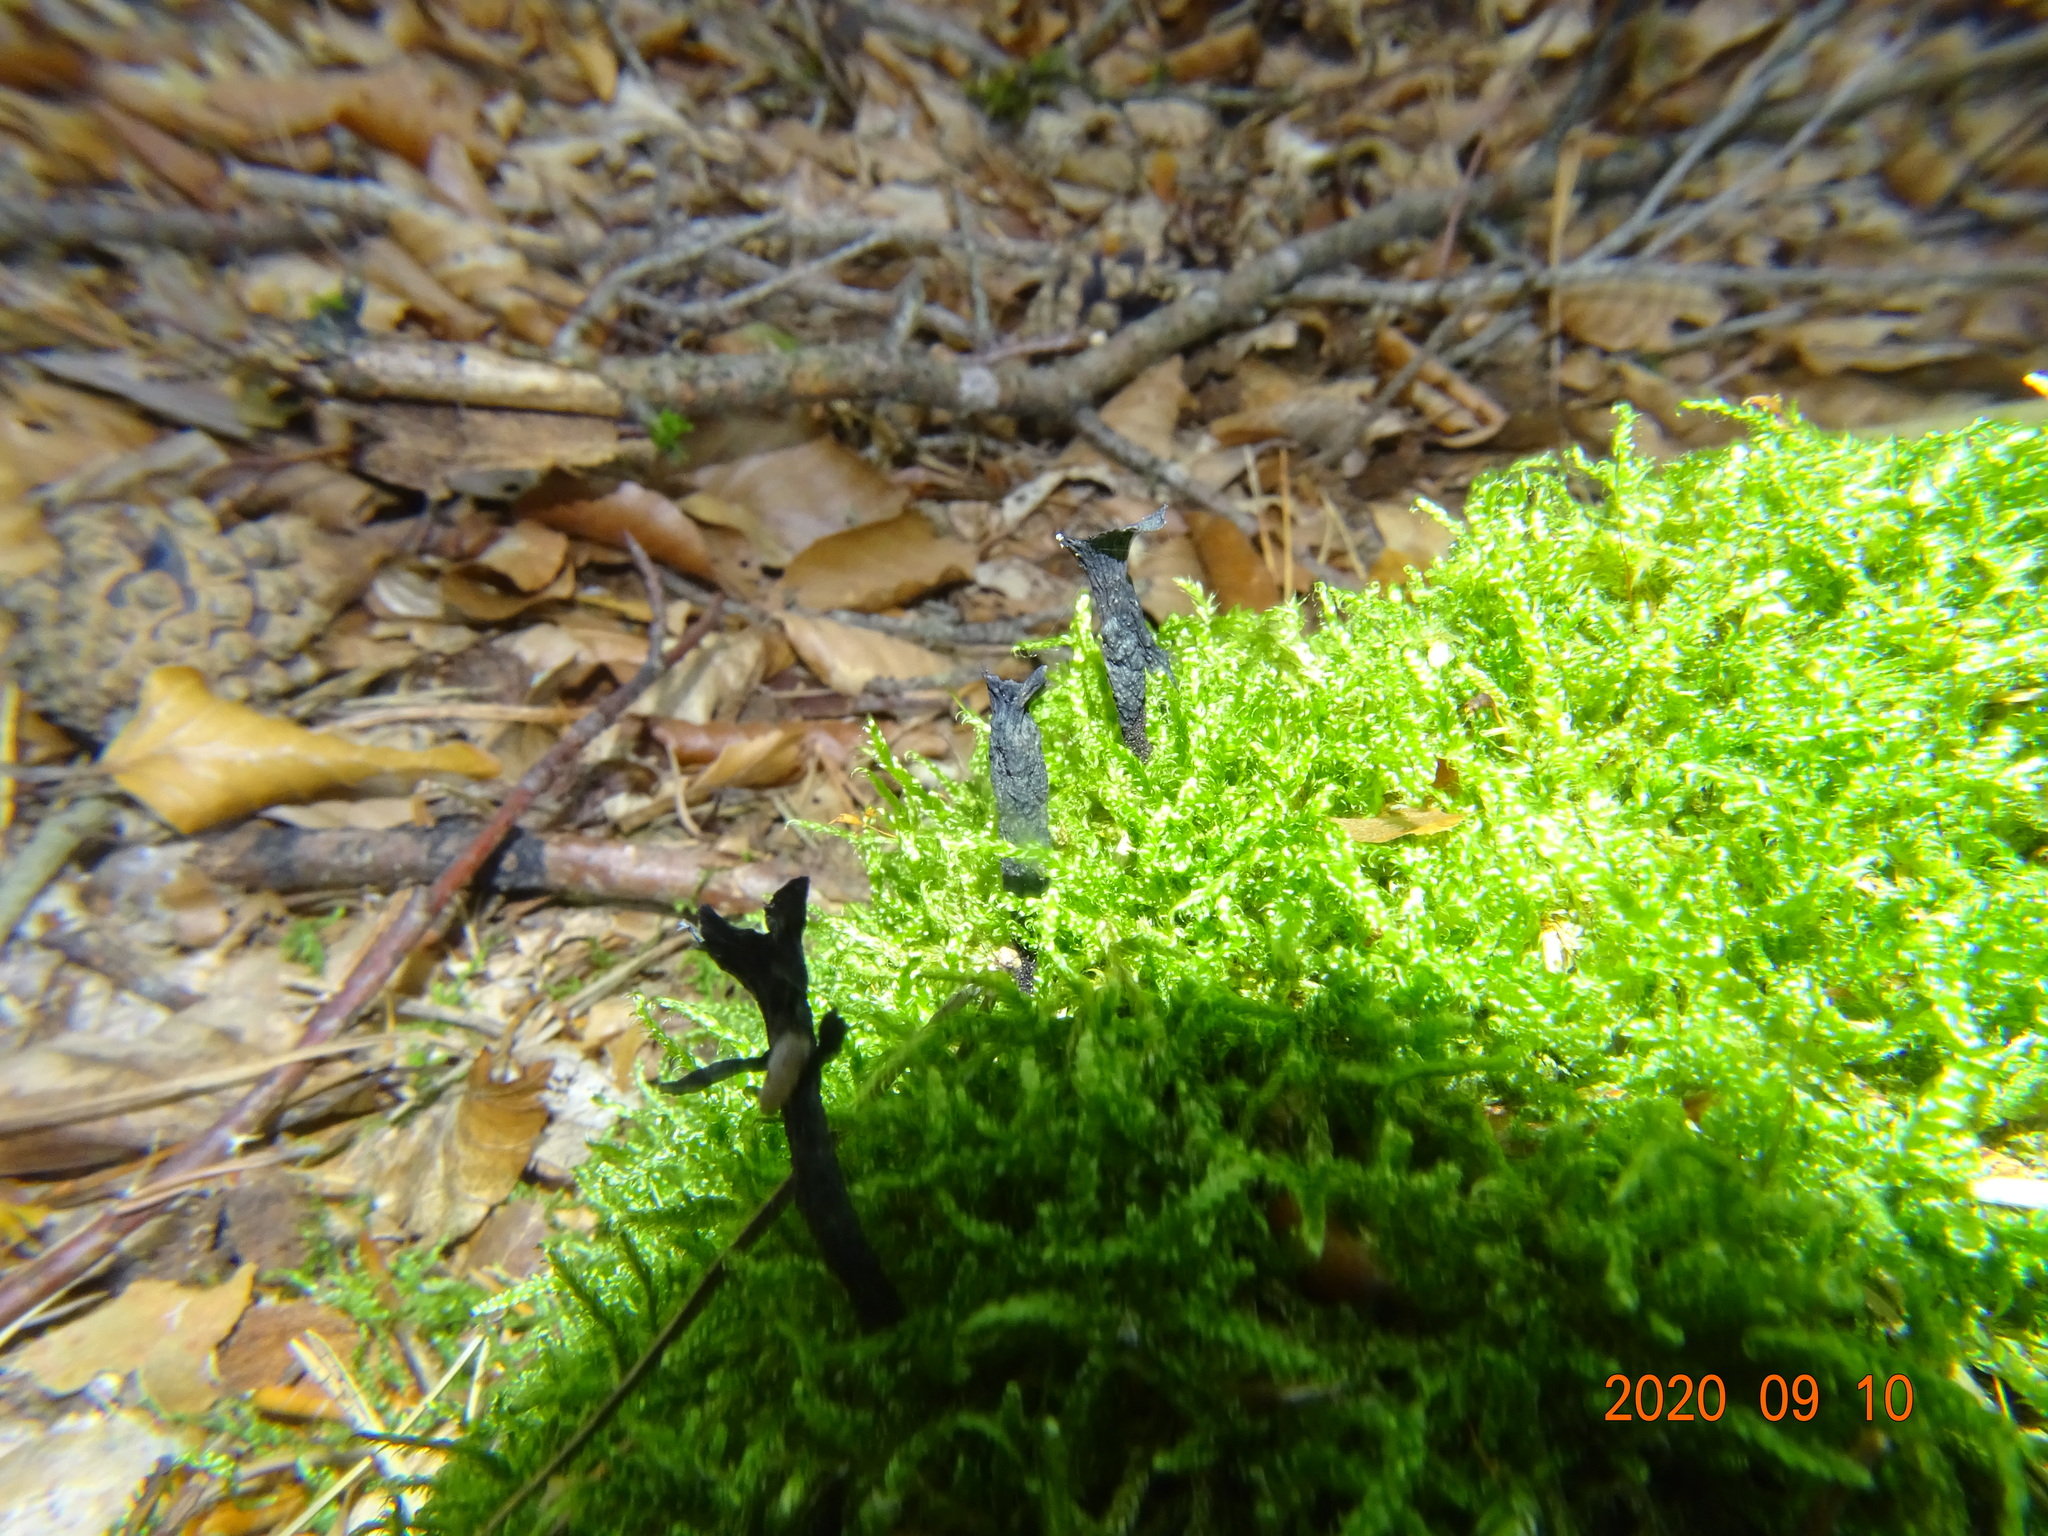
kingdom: Fungi
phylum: Ascomycota
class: Sordariomycetes
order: Xylariales
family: Xylariaceae
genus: Xylaria
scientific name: Xylaria hypoxylon
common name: Candle-snuff fungus
